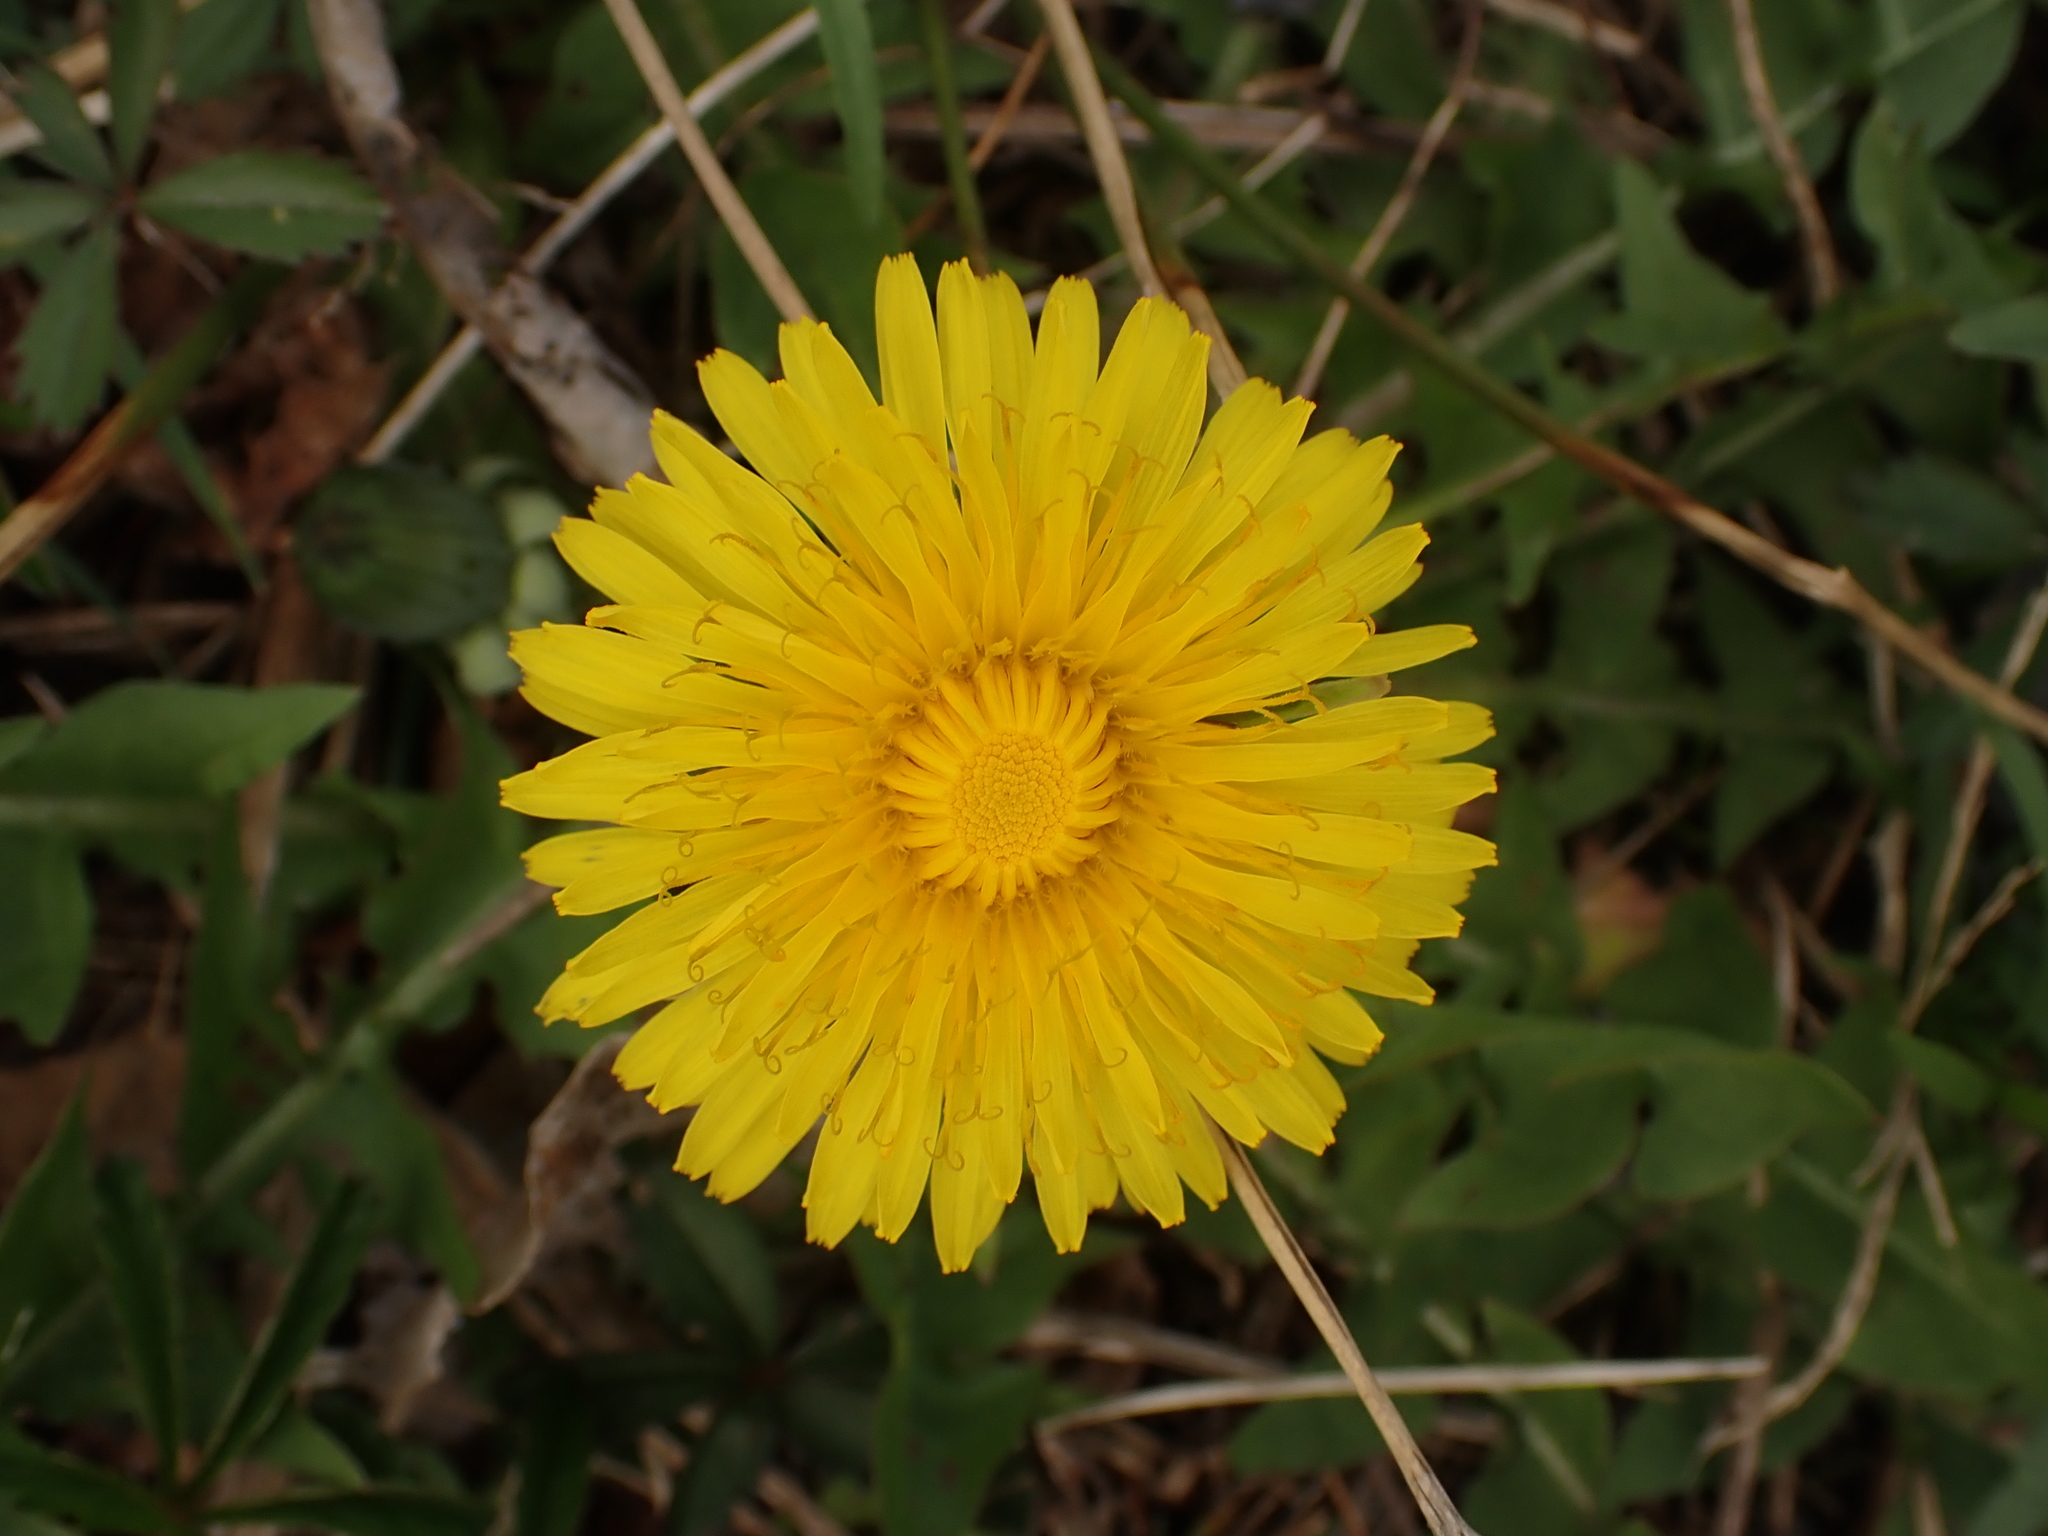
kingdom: Plantae
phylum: Tracheophyta
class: Magnoliopsida
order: Asterales
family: Asteraceae
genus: Taraxacum
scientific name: Taraxacum officinale
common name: Common dandelion
